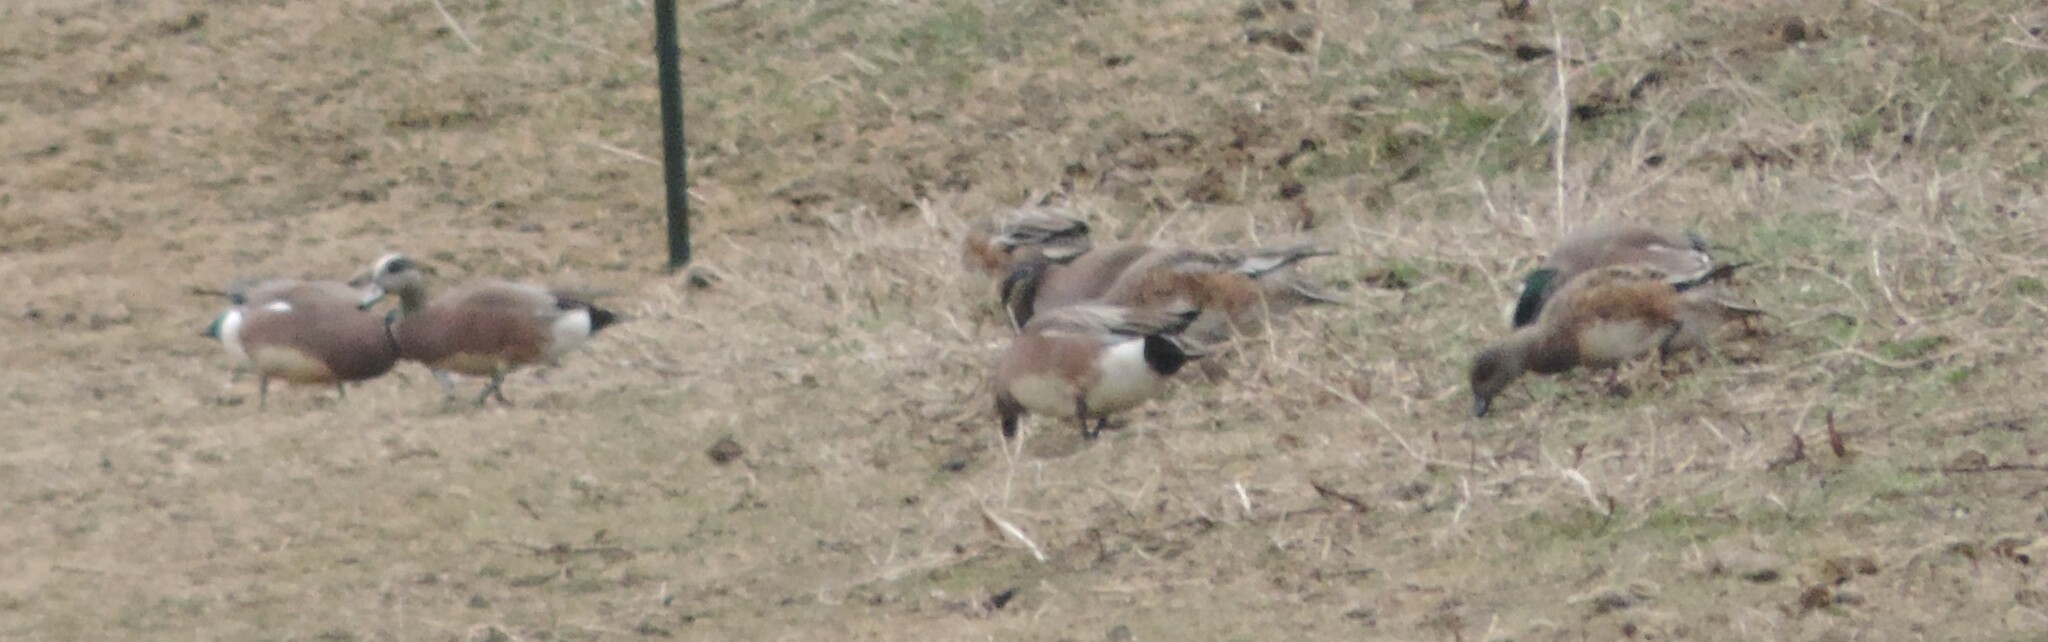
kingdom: Animalia
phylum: Chordata
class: Aves
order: Anseriformes
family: Anatidae
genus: Mareca
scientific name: Mareca americana
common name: American wigeon
